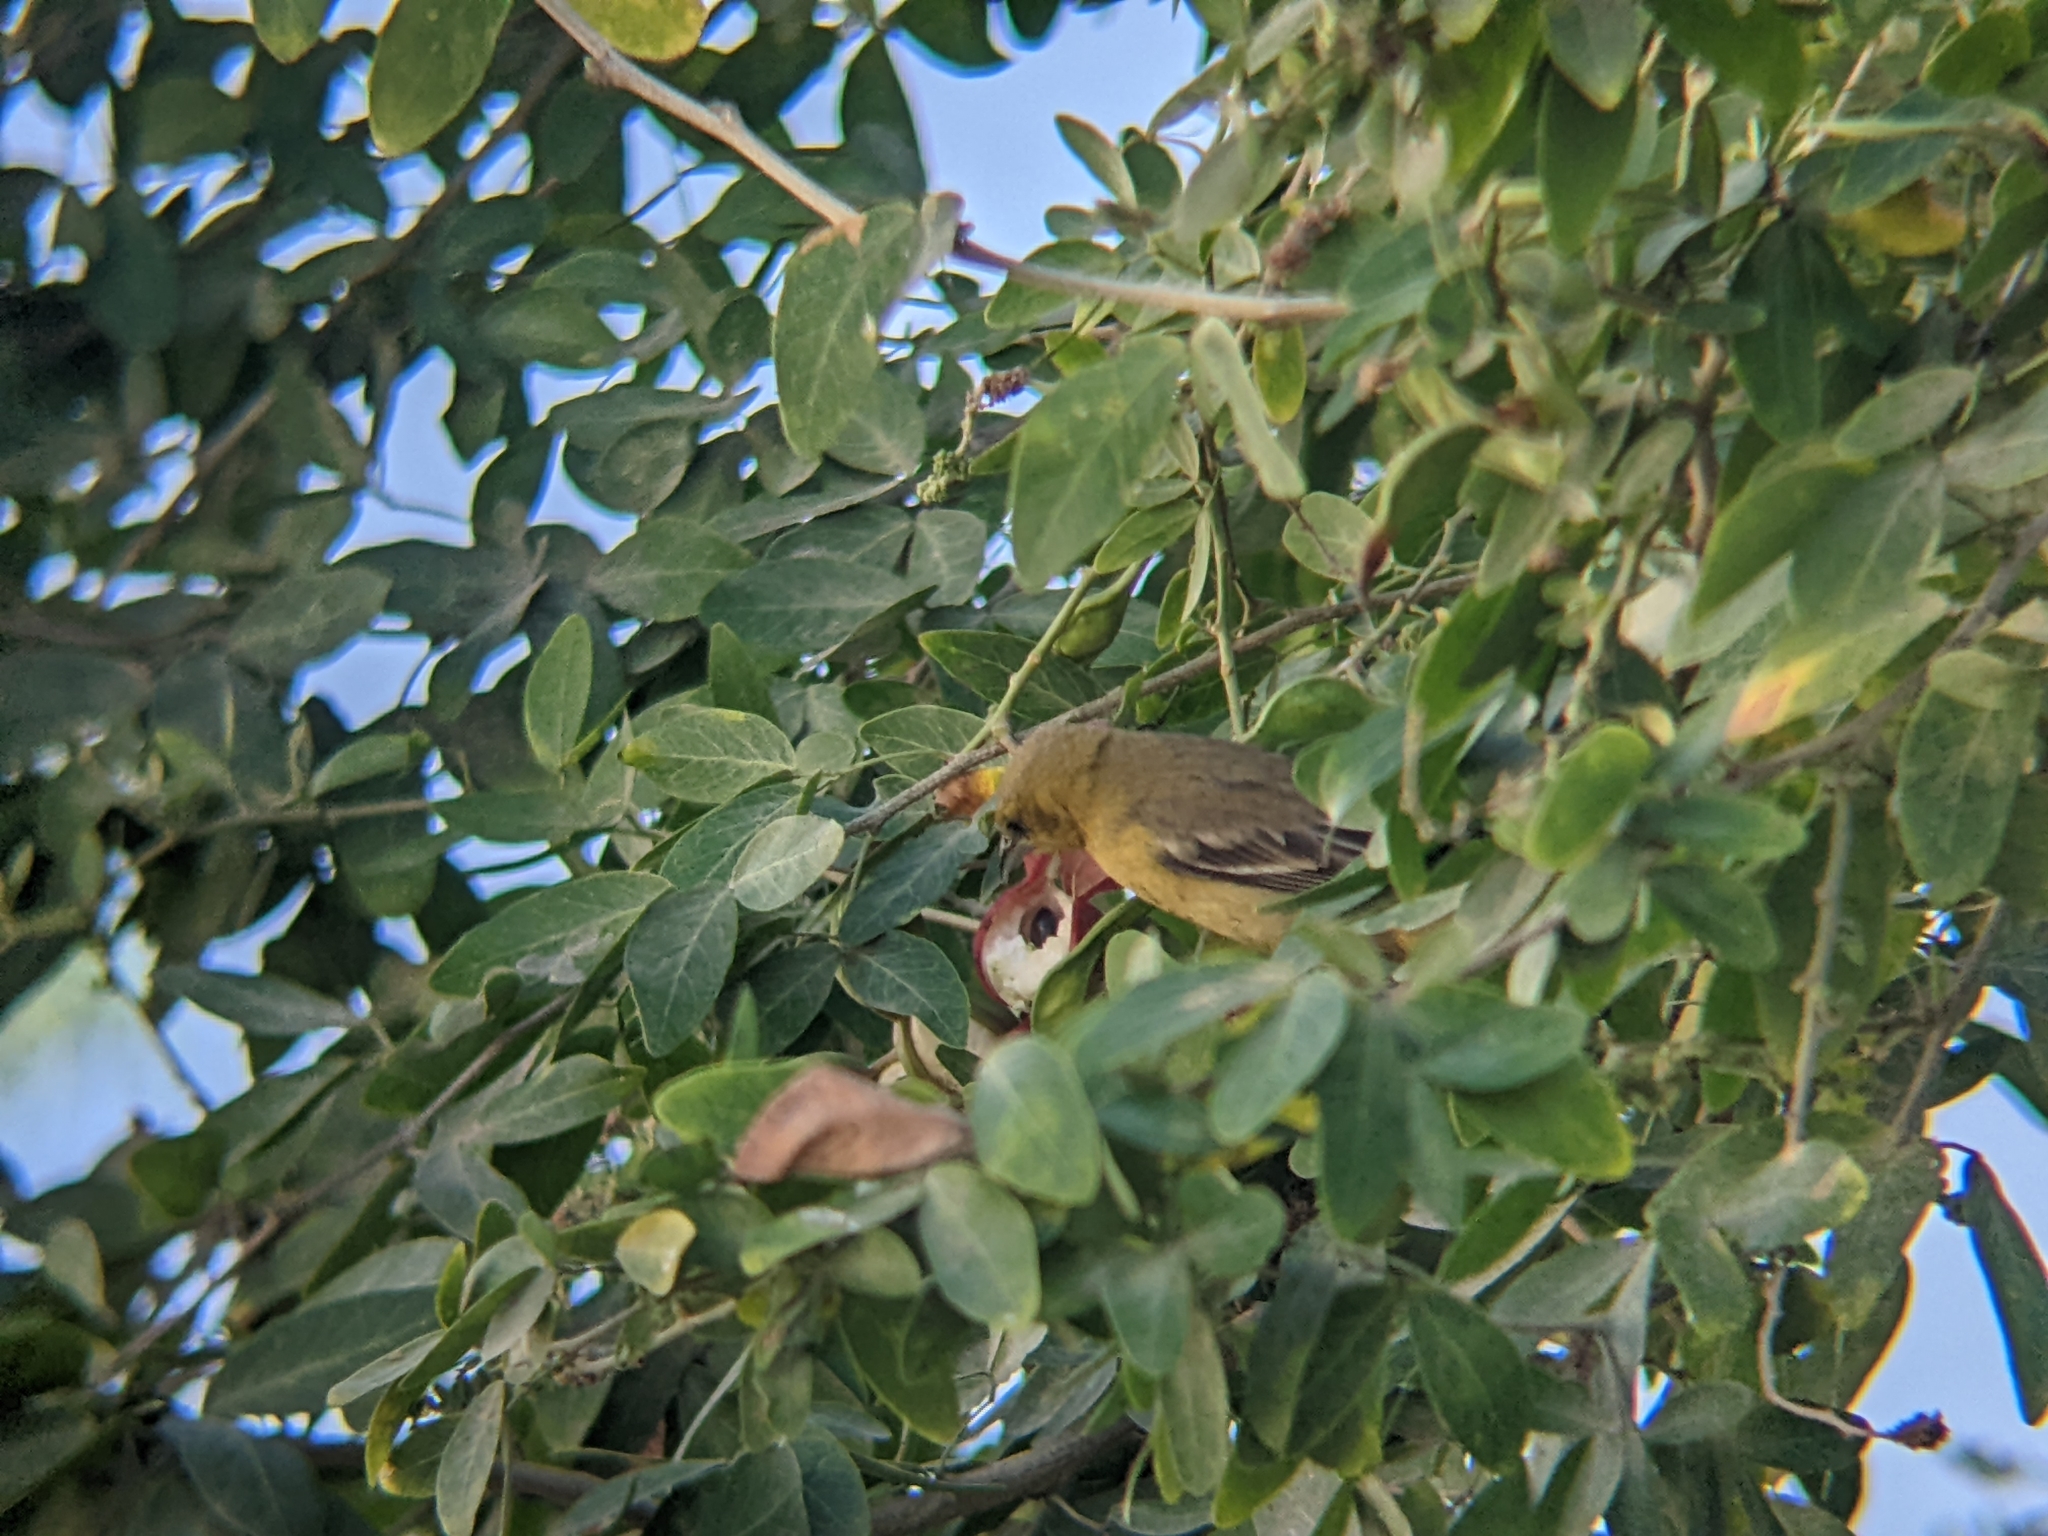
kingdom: Animalia
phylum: Chordata
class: Aves
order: Passeriformes
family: Icteridae
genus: Icterus
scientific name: Icterus cucullatus
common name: Hooded oriole
